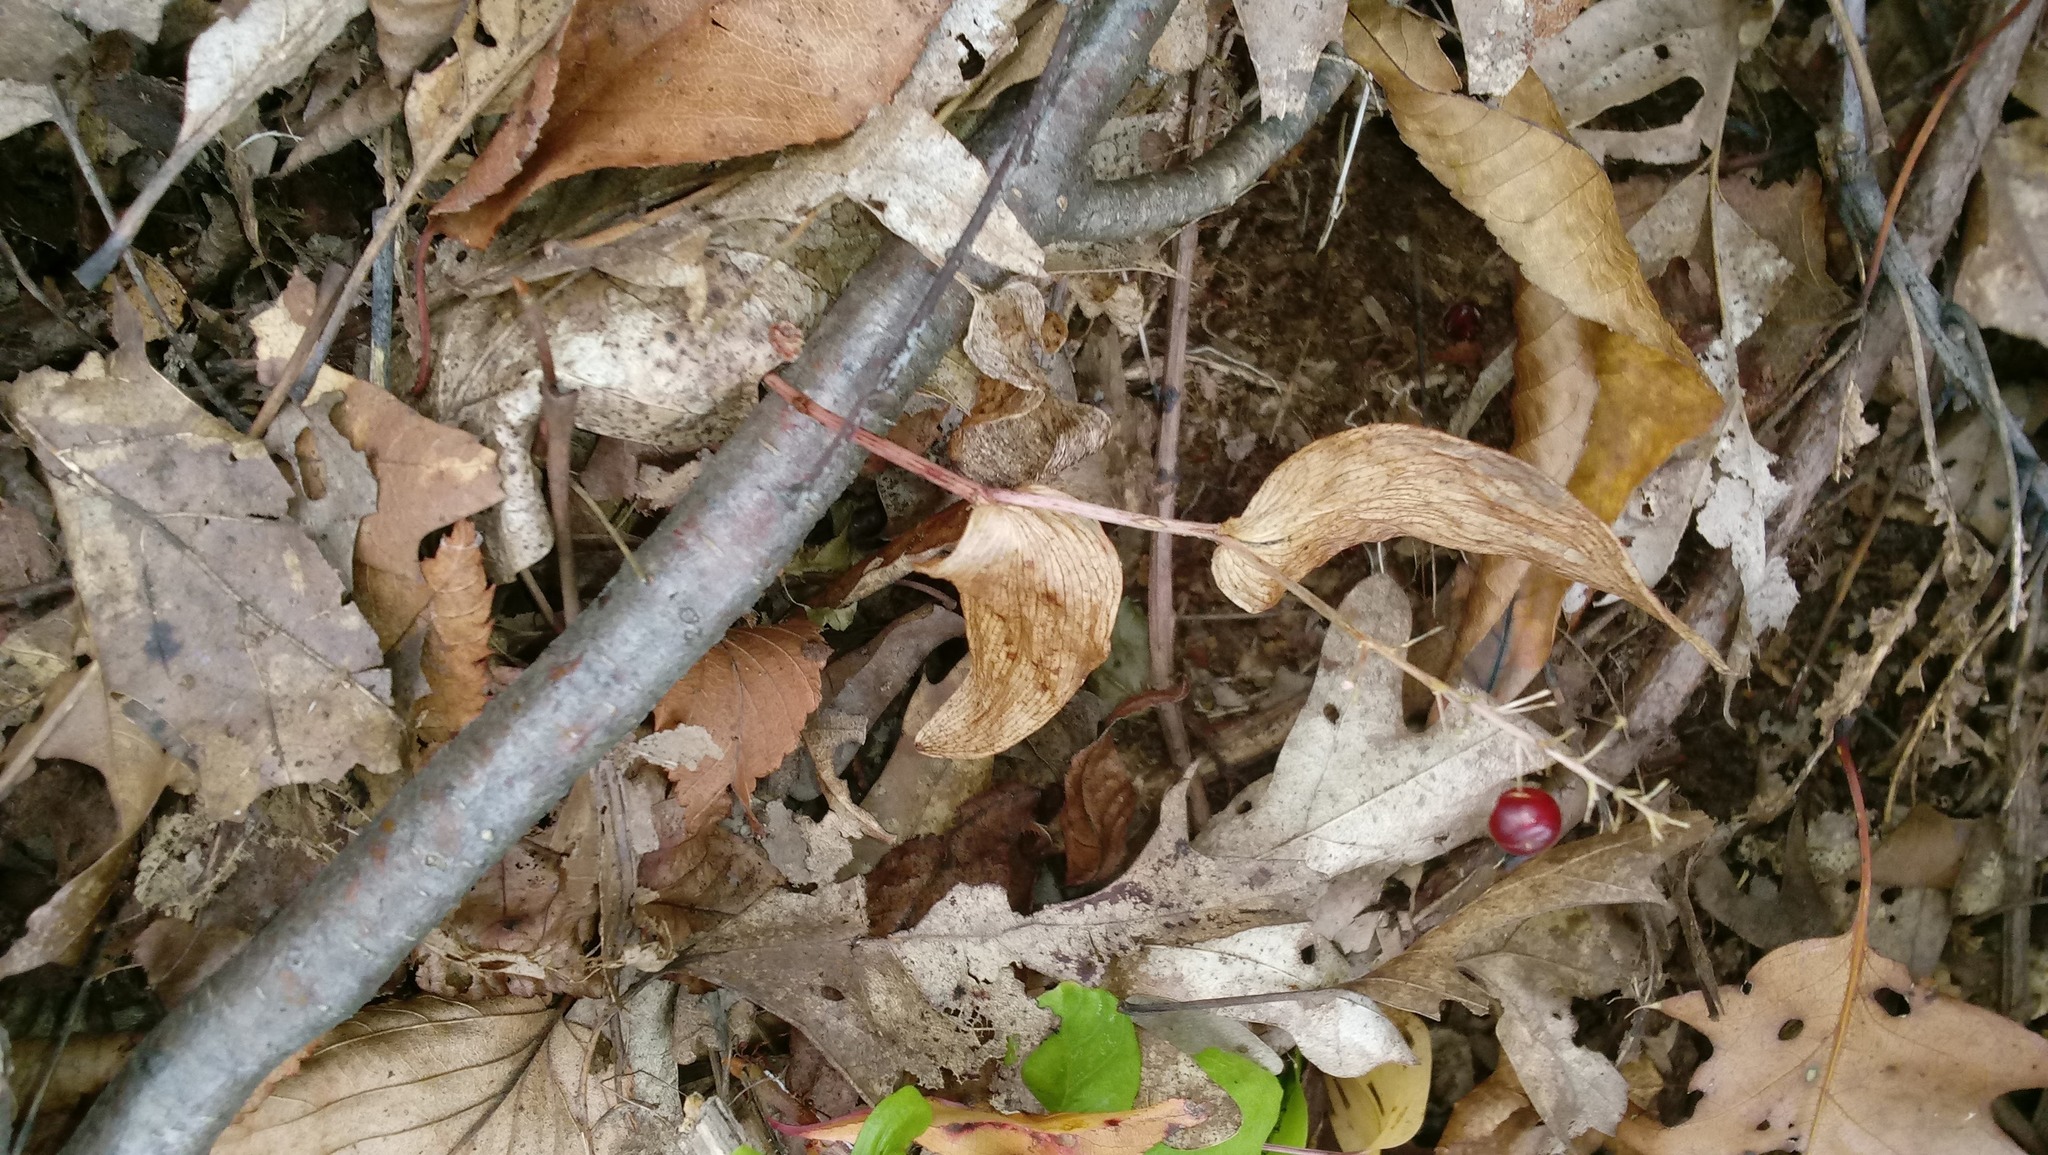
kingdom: Plantae
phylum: Tracheophyta
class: Liliopsida
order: Asparagales
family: Asparagaceae
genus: Maianthemum
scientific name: Maianthemum canadense
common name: False lily-of-the-valley
